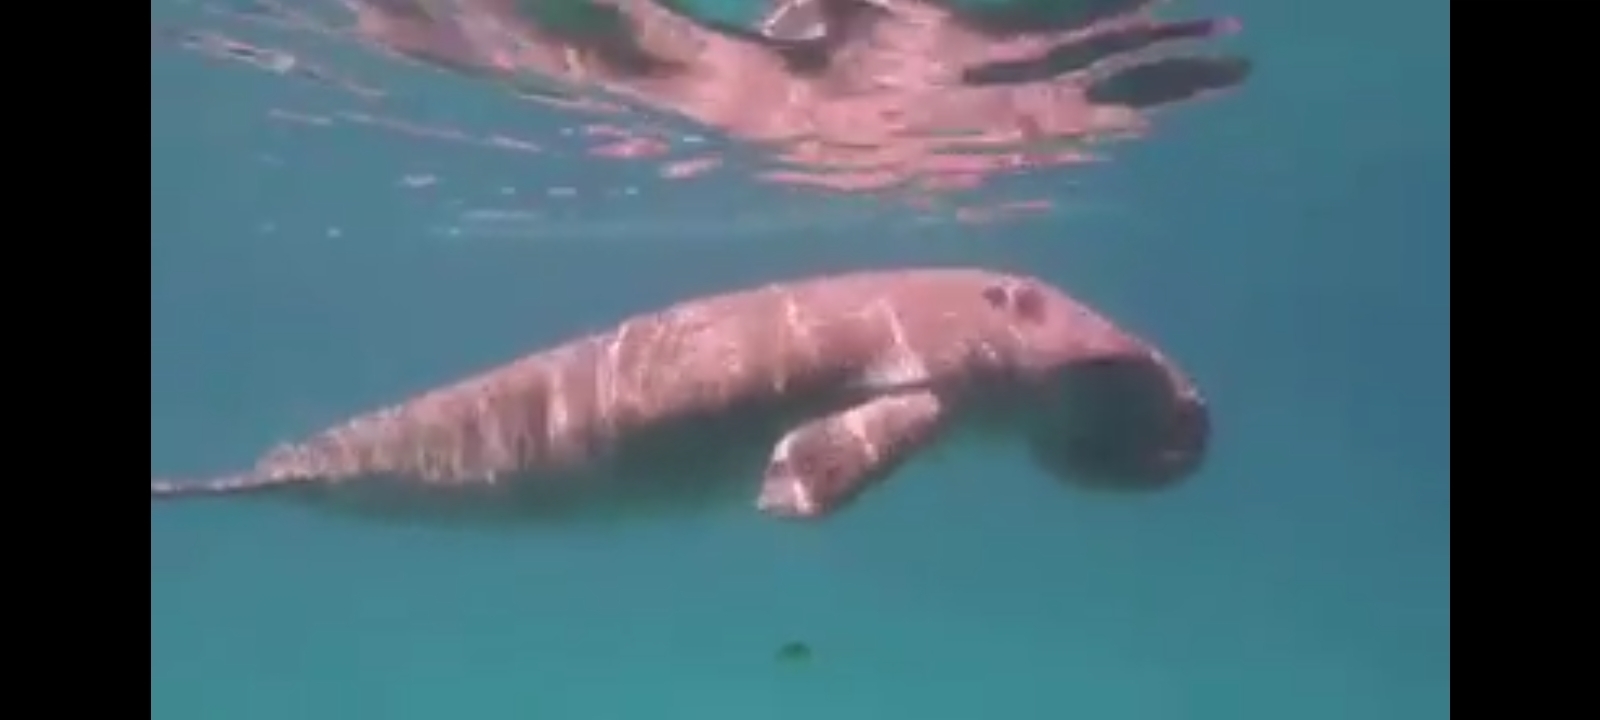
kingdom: Animalia
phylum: Chordata
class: Mammalia
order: Sirenia
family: Dugongidae
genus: Dugong
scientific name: Dugong dugon
